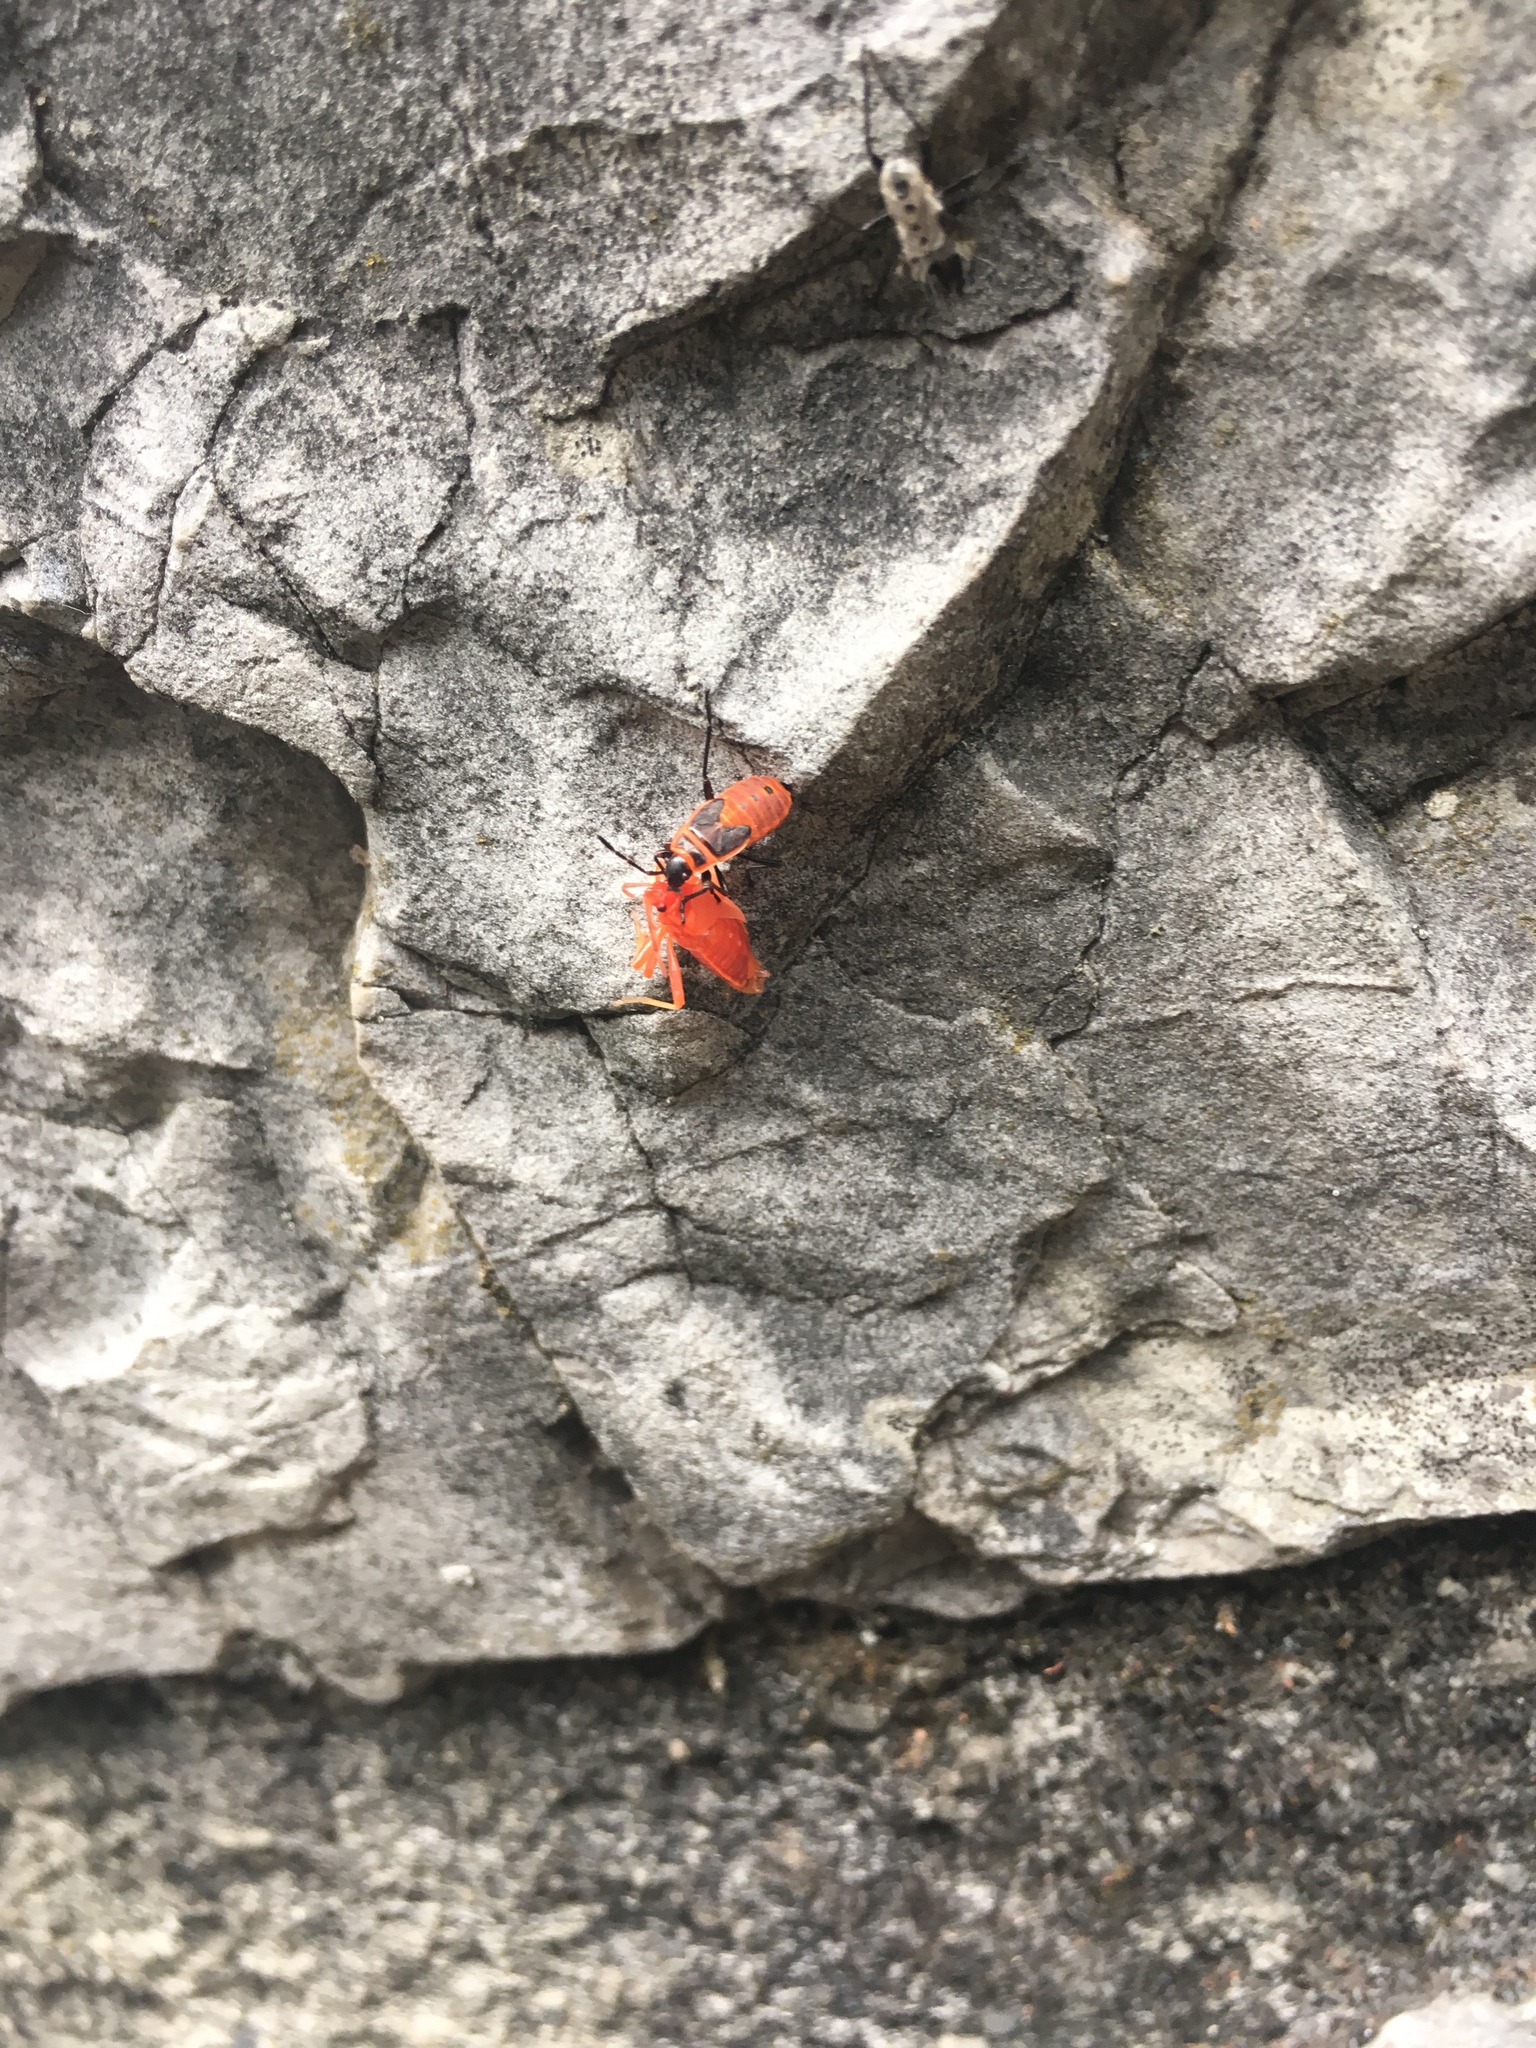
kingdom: Animalia
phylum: Arthropoda
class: Insecta
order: Hemiptera
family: Pyrrhocoridae
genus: Pyrrhocoris
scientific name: Pyrrhocoris apterus
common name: Firebug
